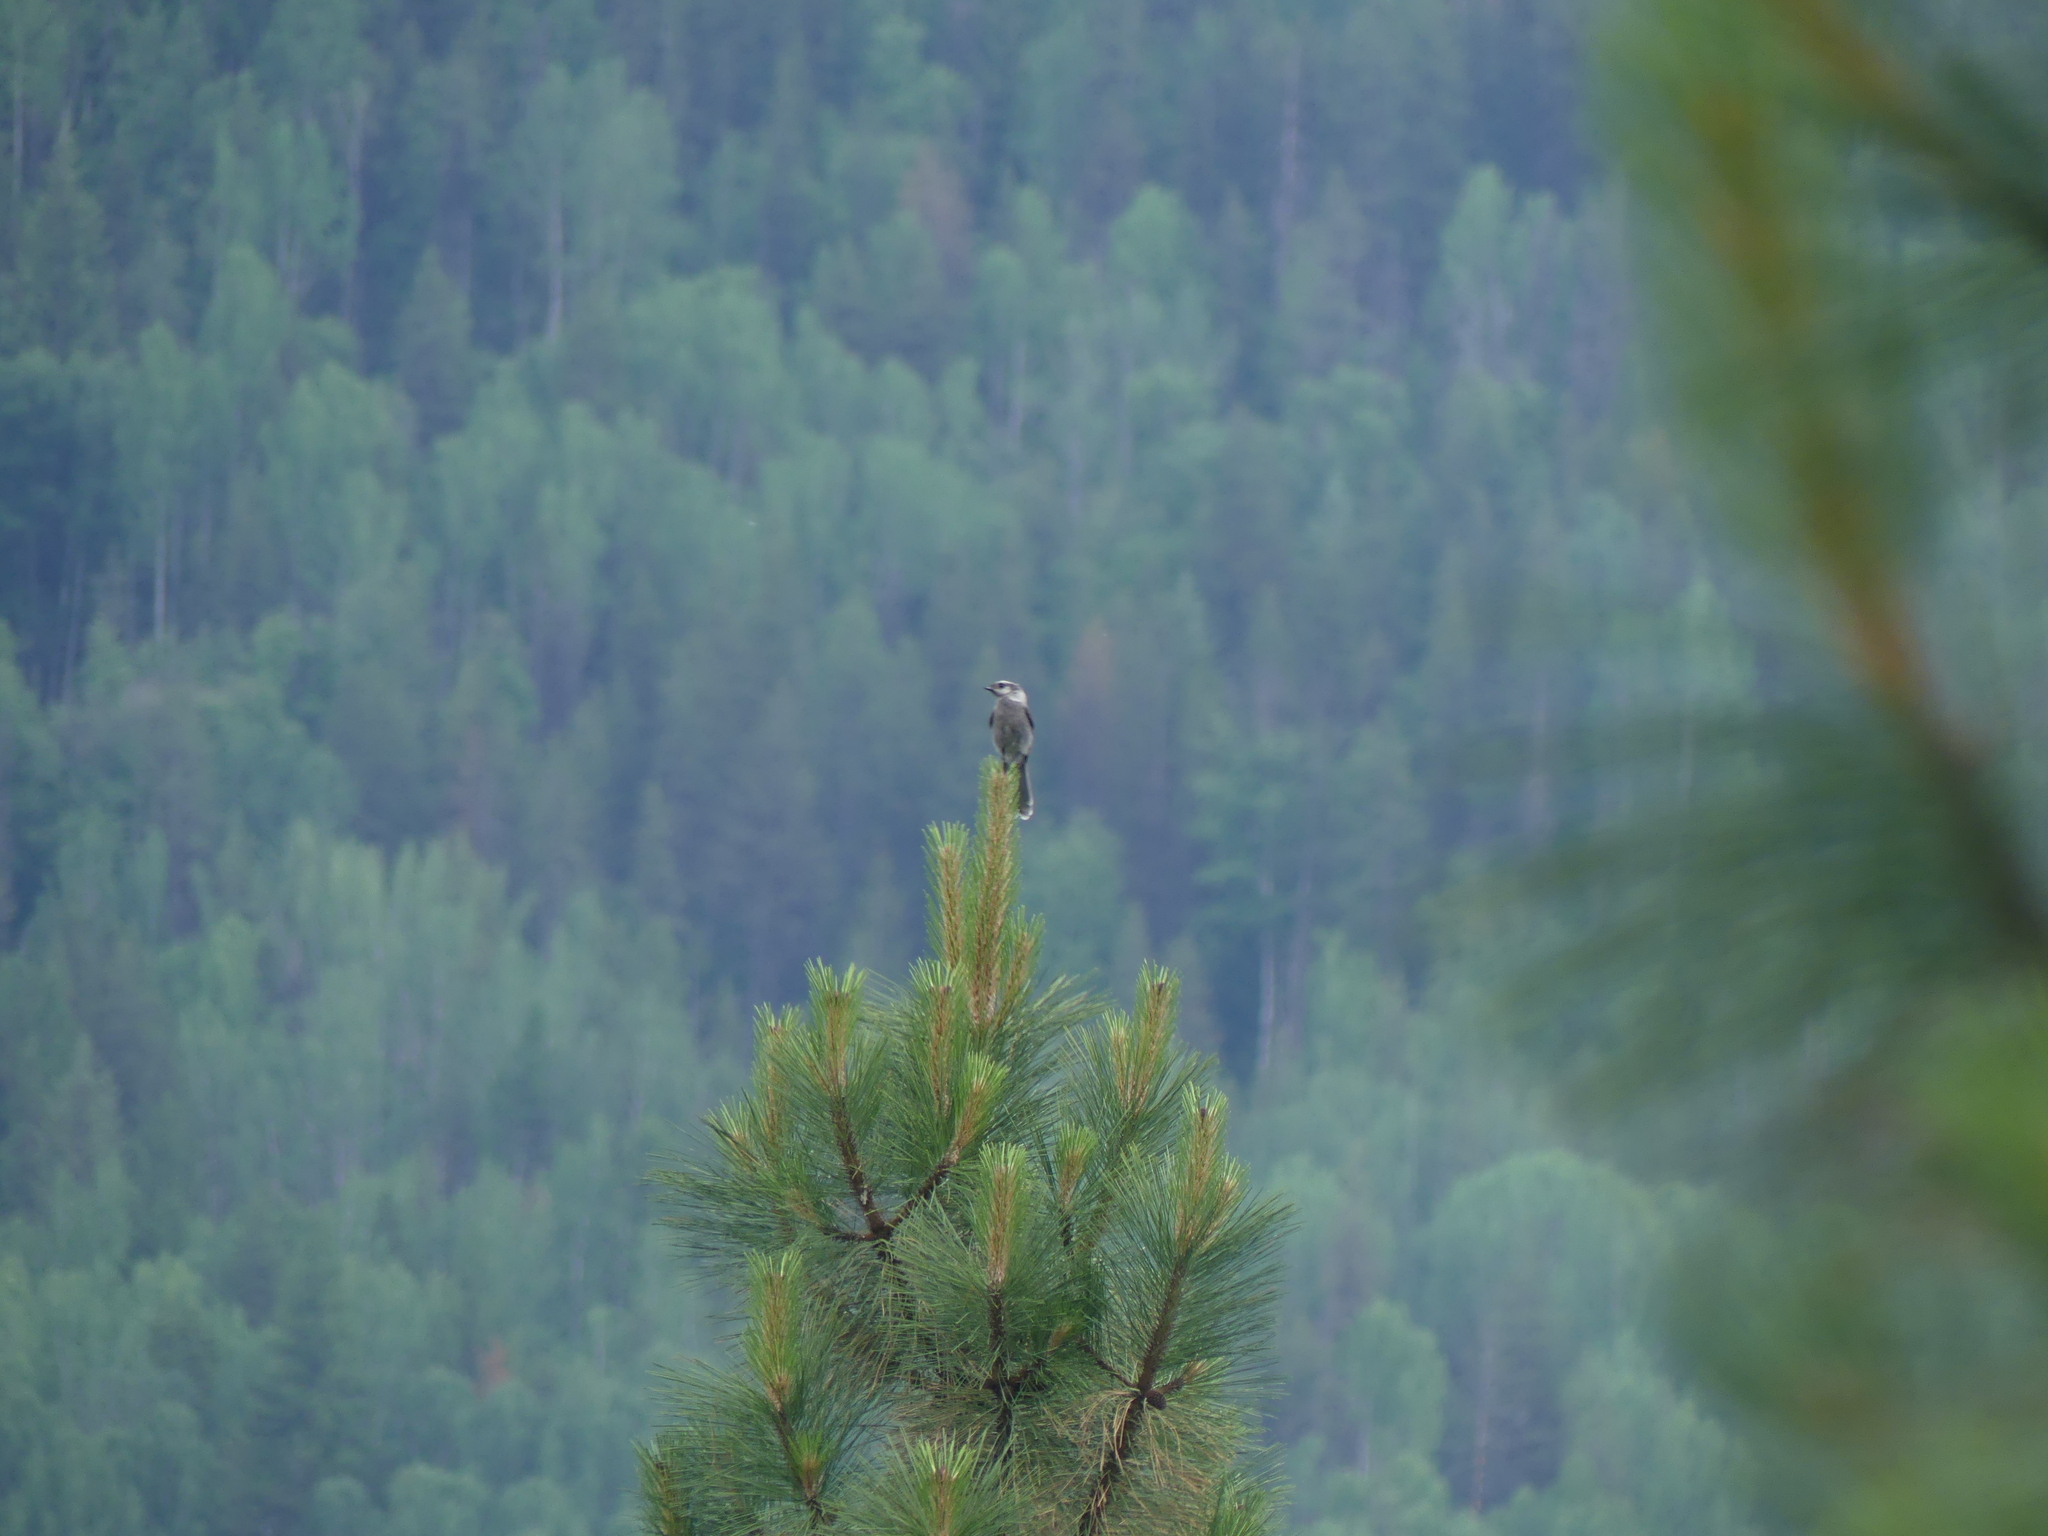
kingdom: Animalia
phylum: Chordata
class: Aves
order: Passeriformes
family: Corvidae
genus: Perisoreus
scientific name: Perisoreus canadensis
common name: Gray jay
